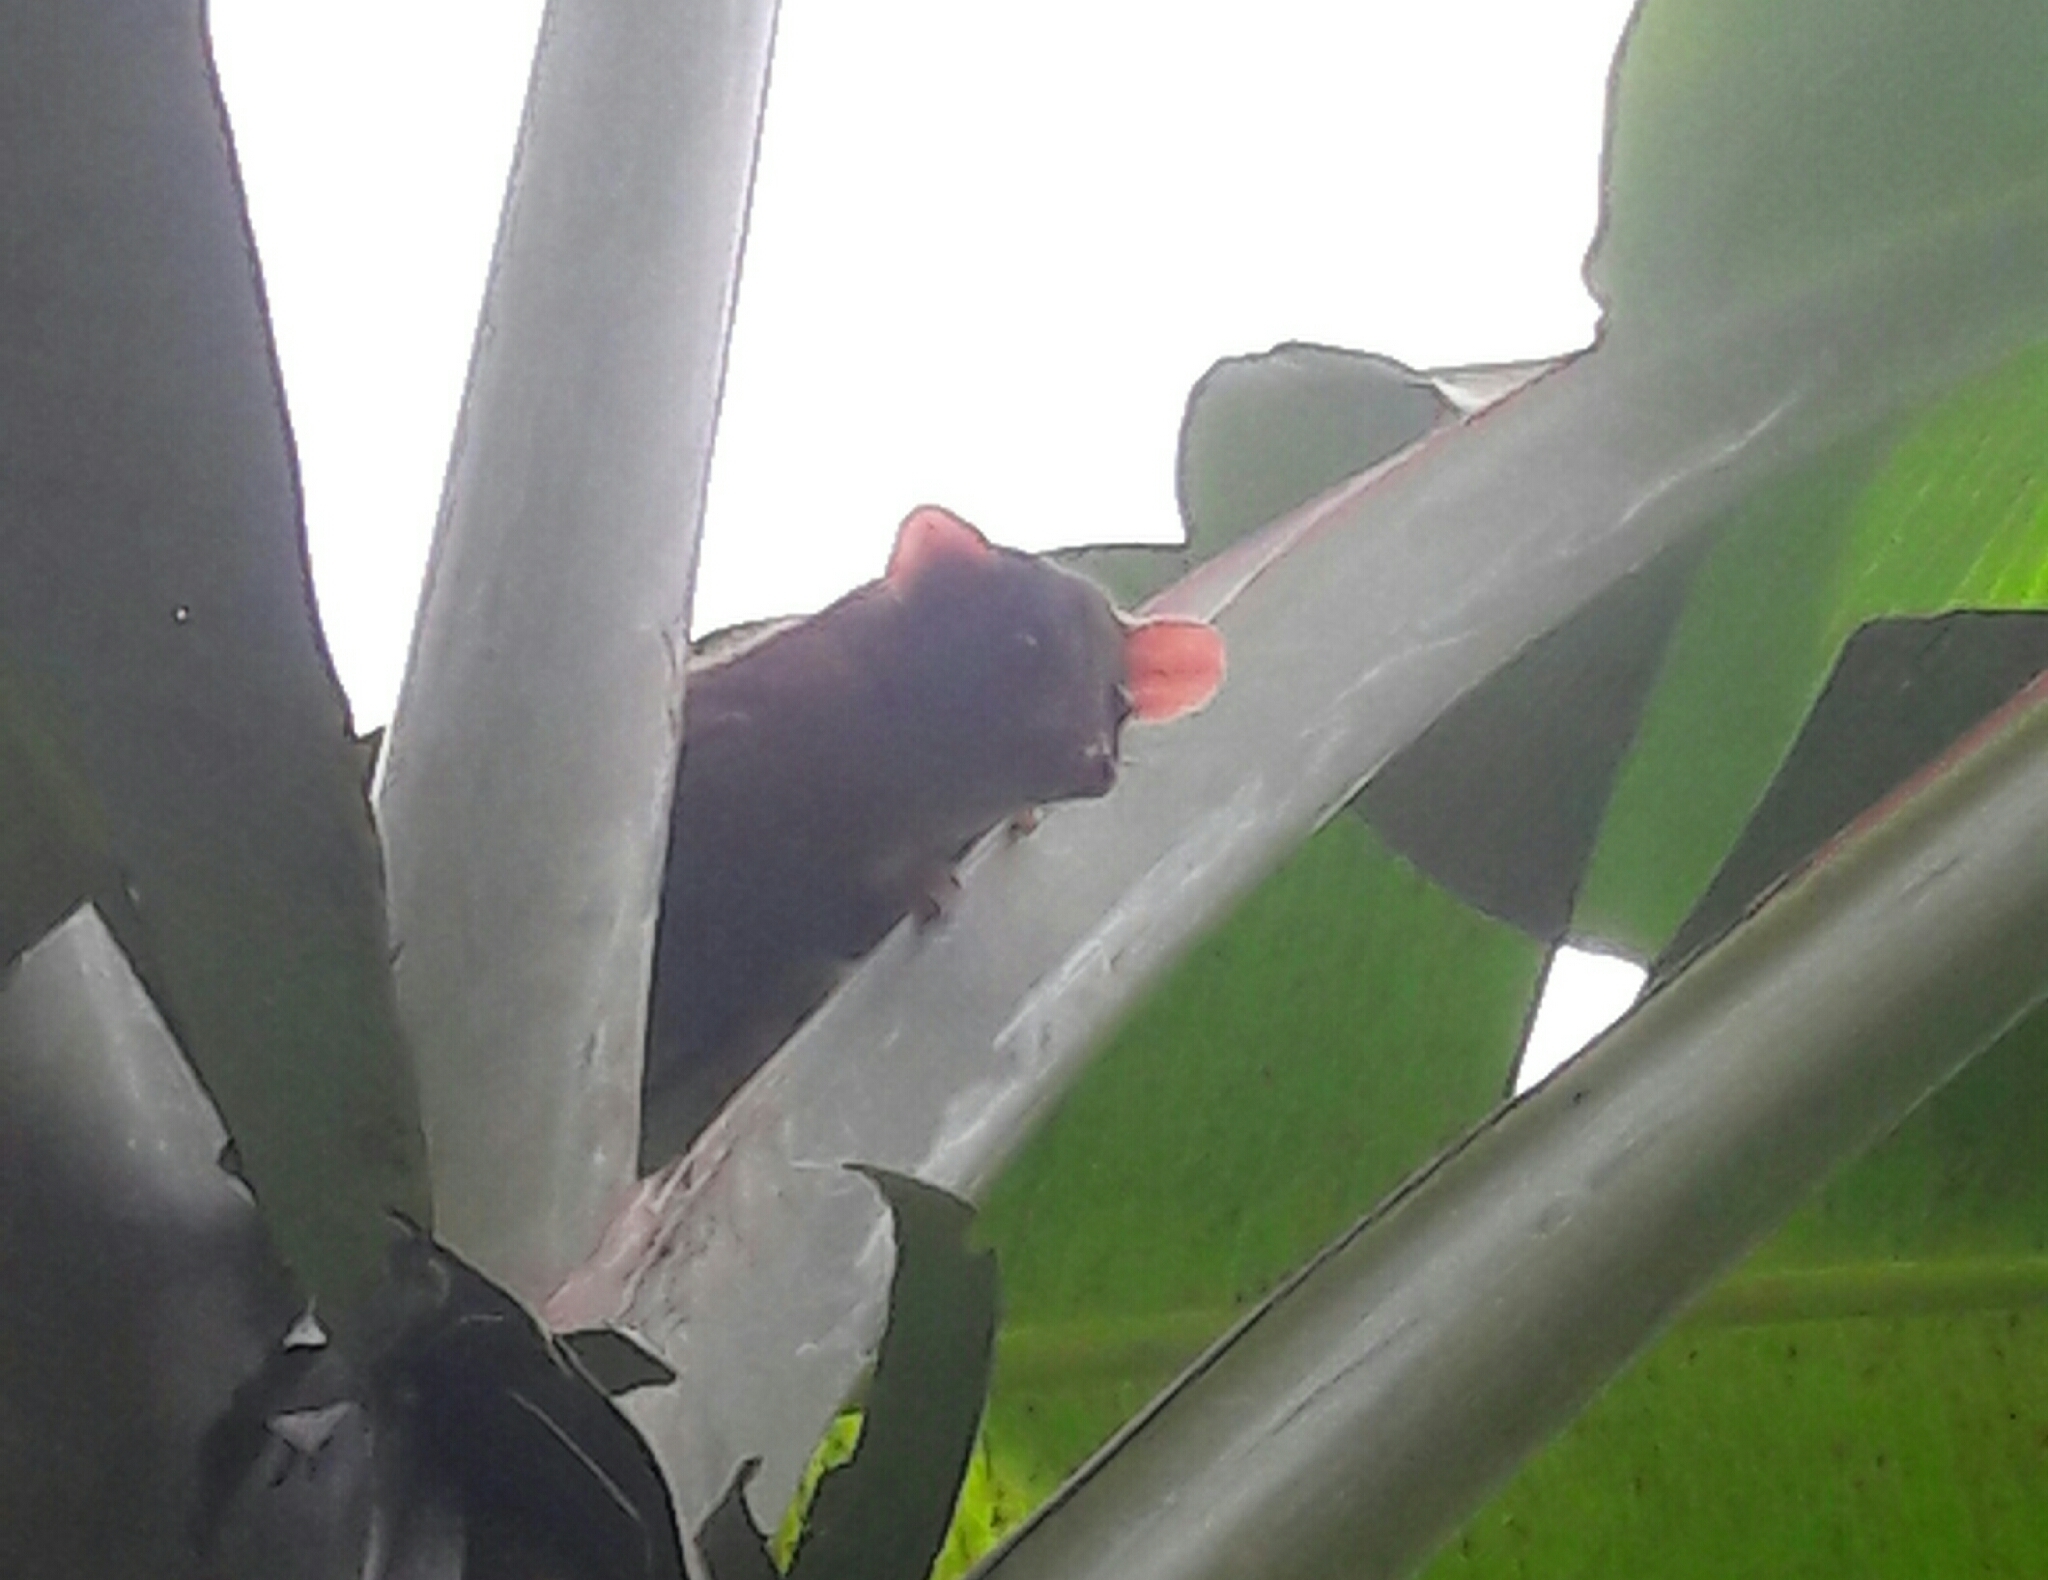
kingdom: Animalia
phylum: Chordata
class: Mammalia
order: Didelphimorphia
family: Didelphidae
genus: Caluromys
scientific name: Caluromys derbianus
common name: Derby's woolly opossum
